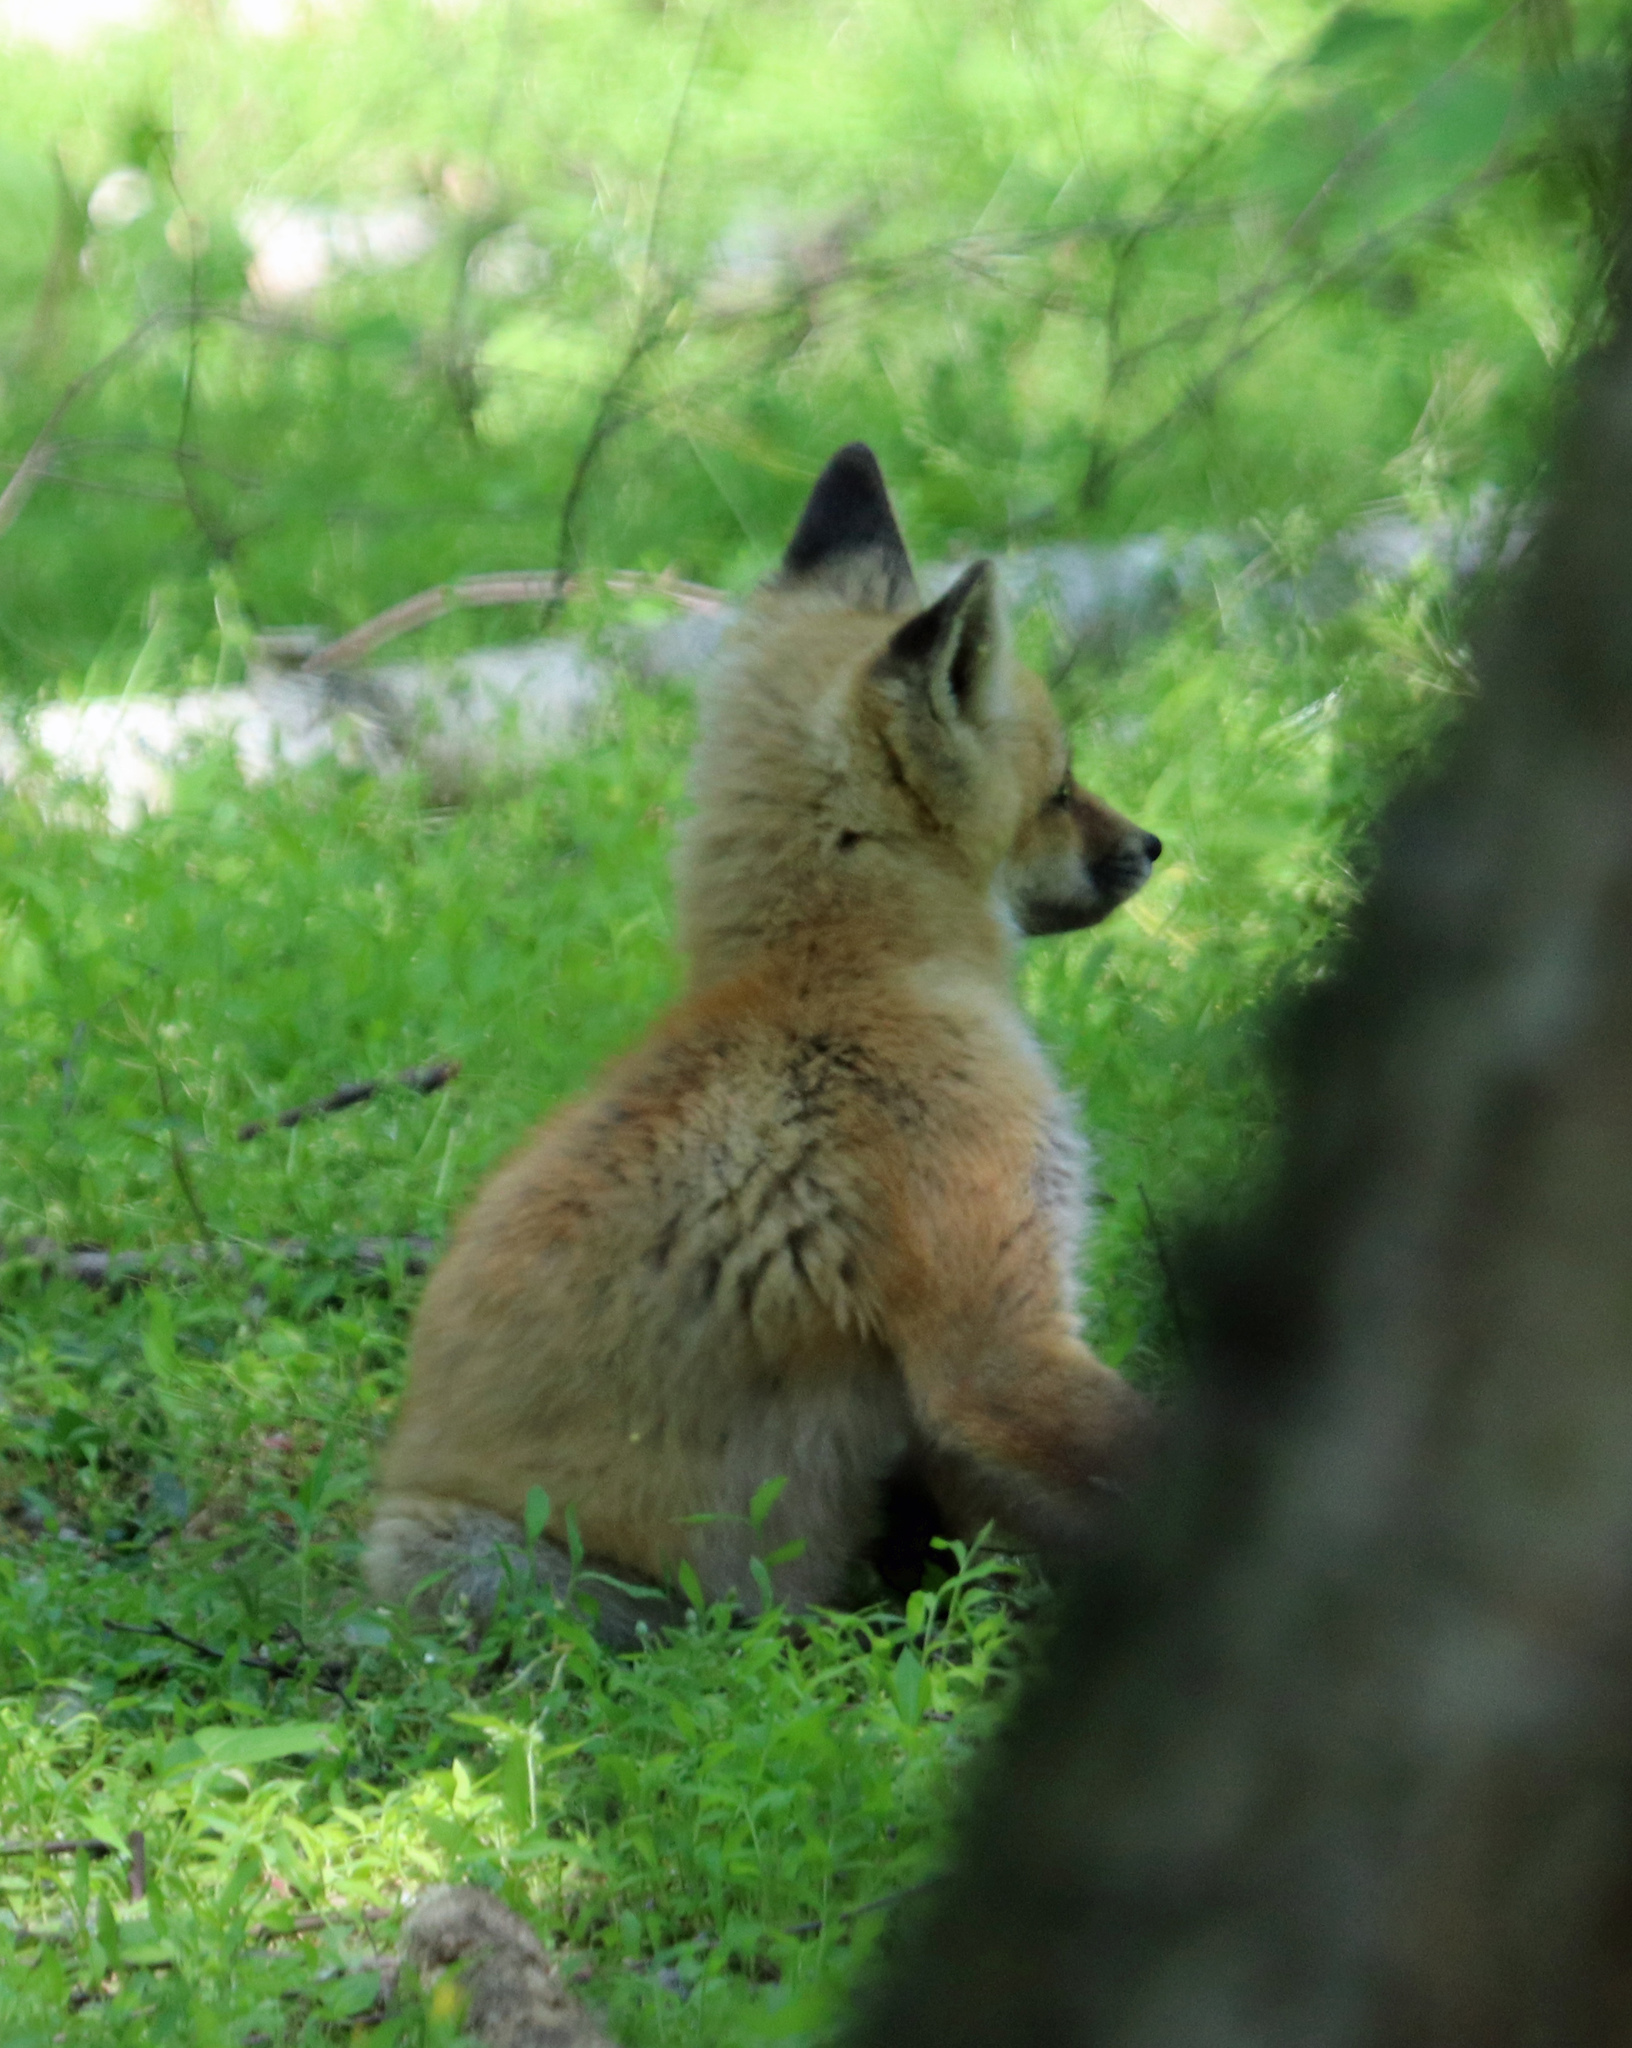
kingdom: Animalia
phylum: Chordata
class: Mammalia
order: Carnivora
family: Canidae
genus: Vulpes
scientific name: Vulpes vulpes
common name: Red fox
